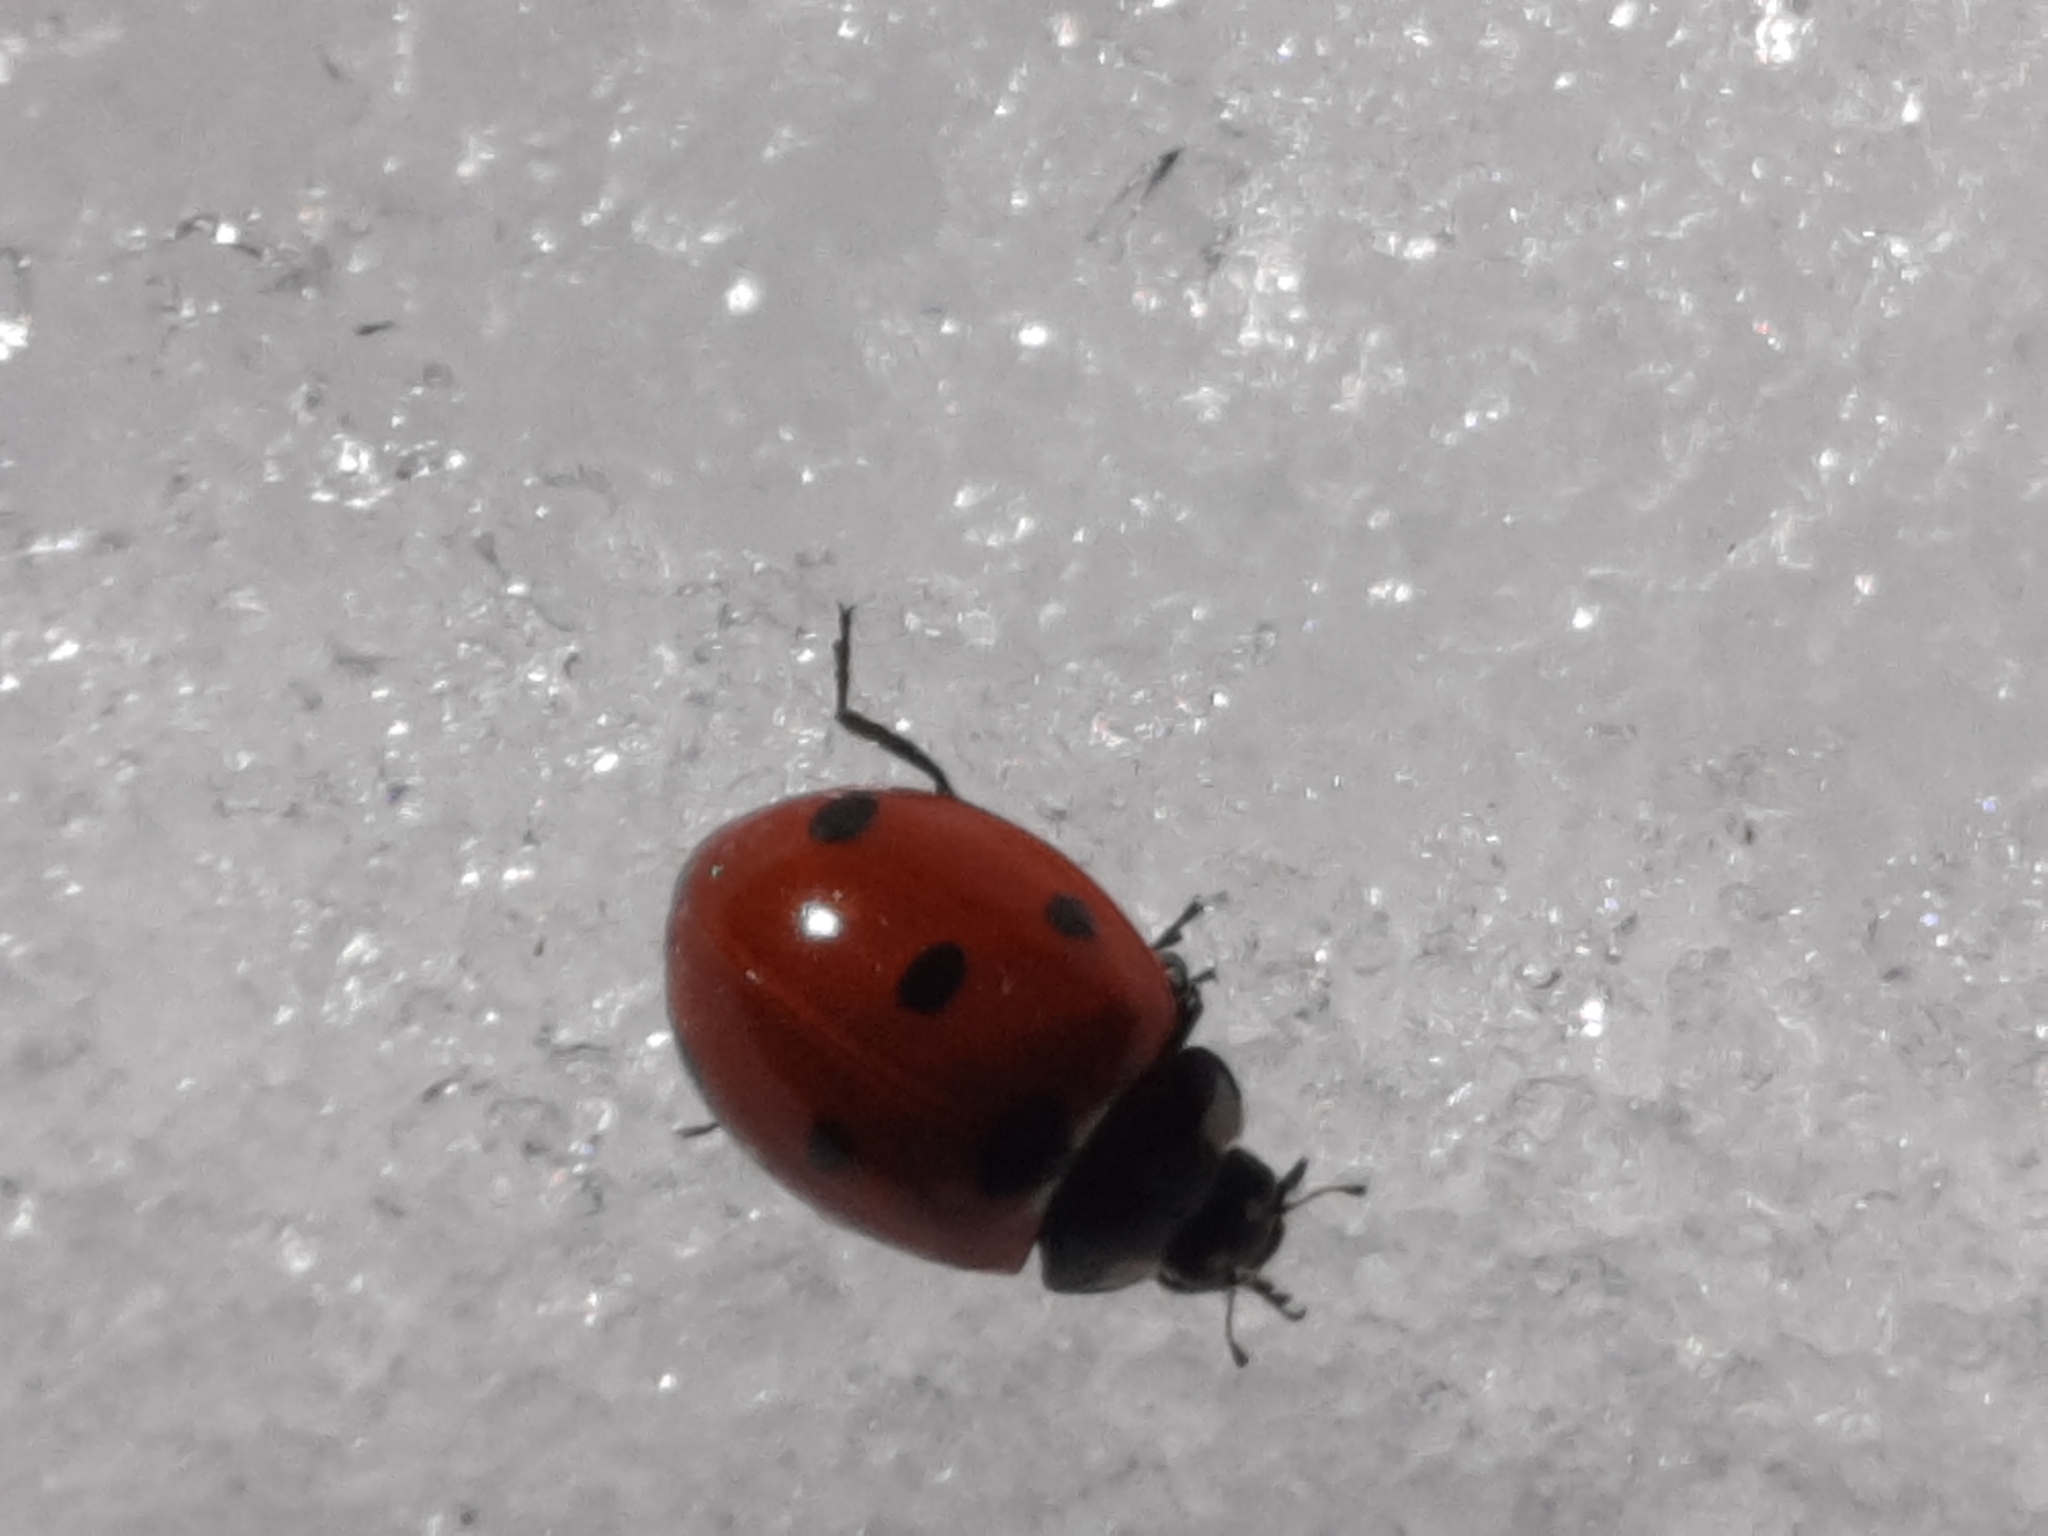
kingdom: Animalia
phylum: Arthropoda
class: Insecta
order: Coleoptera
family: Coccinellidae
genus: Coccinella
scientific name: Coccinella septempunctata
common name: Sevenspotted lady beetle
